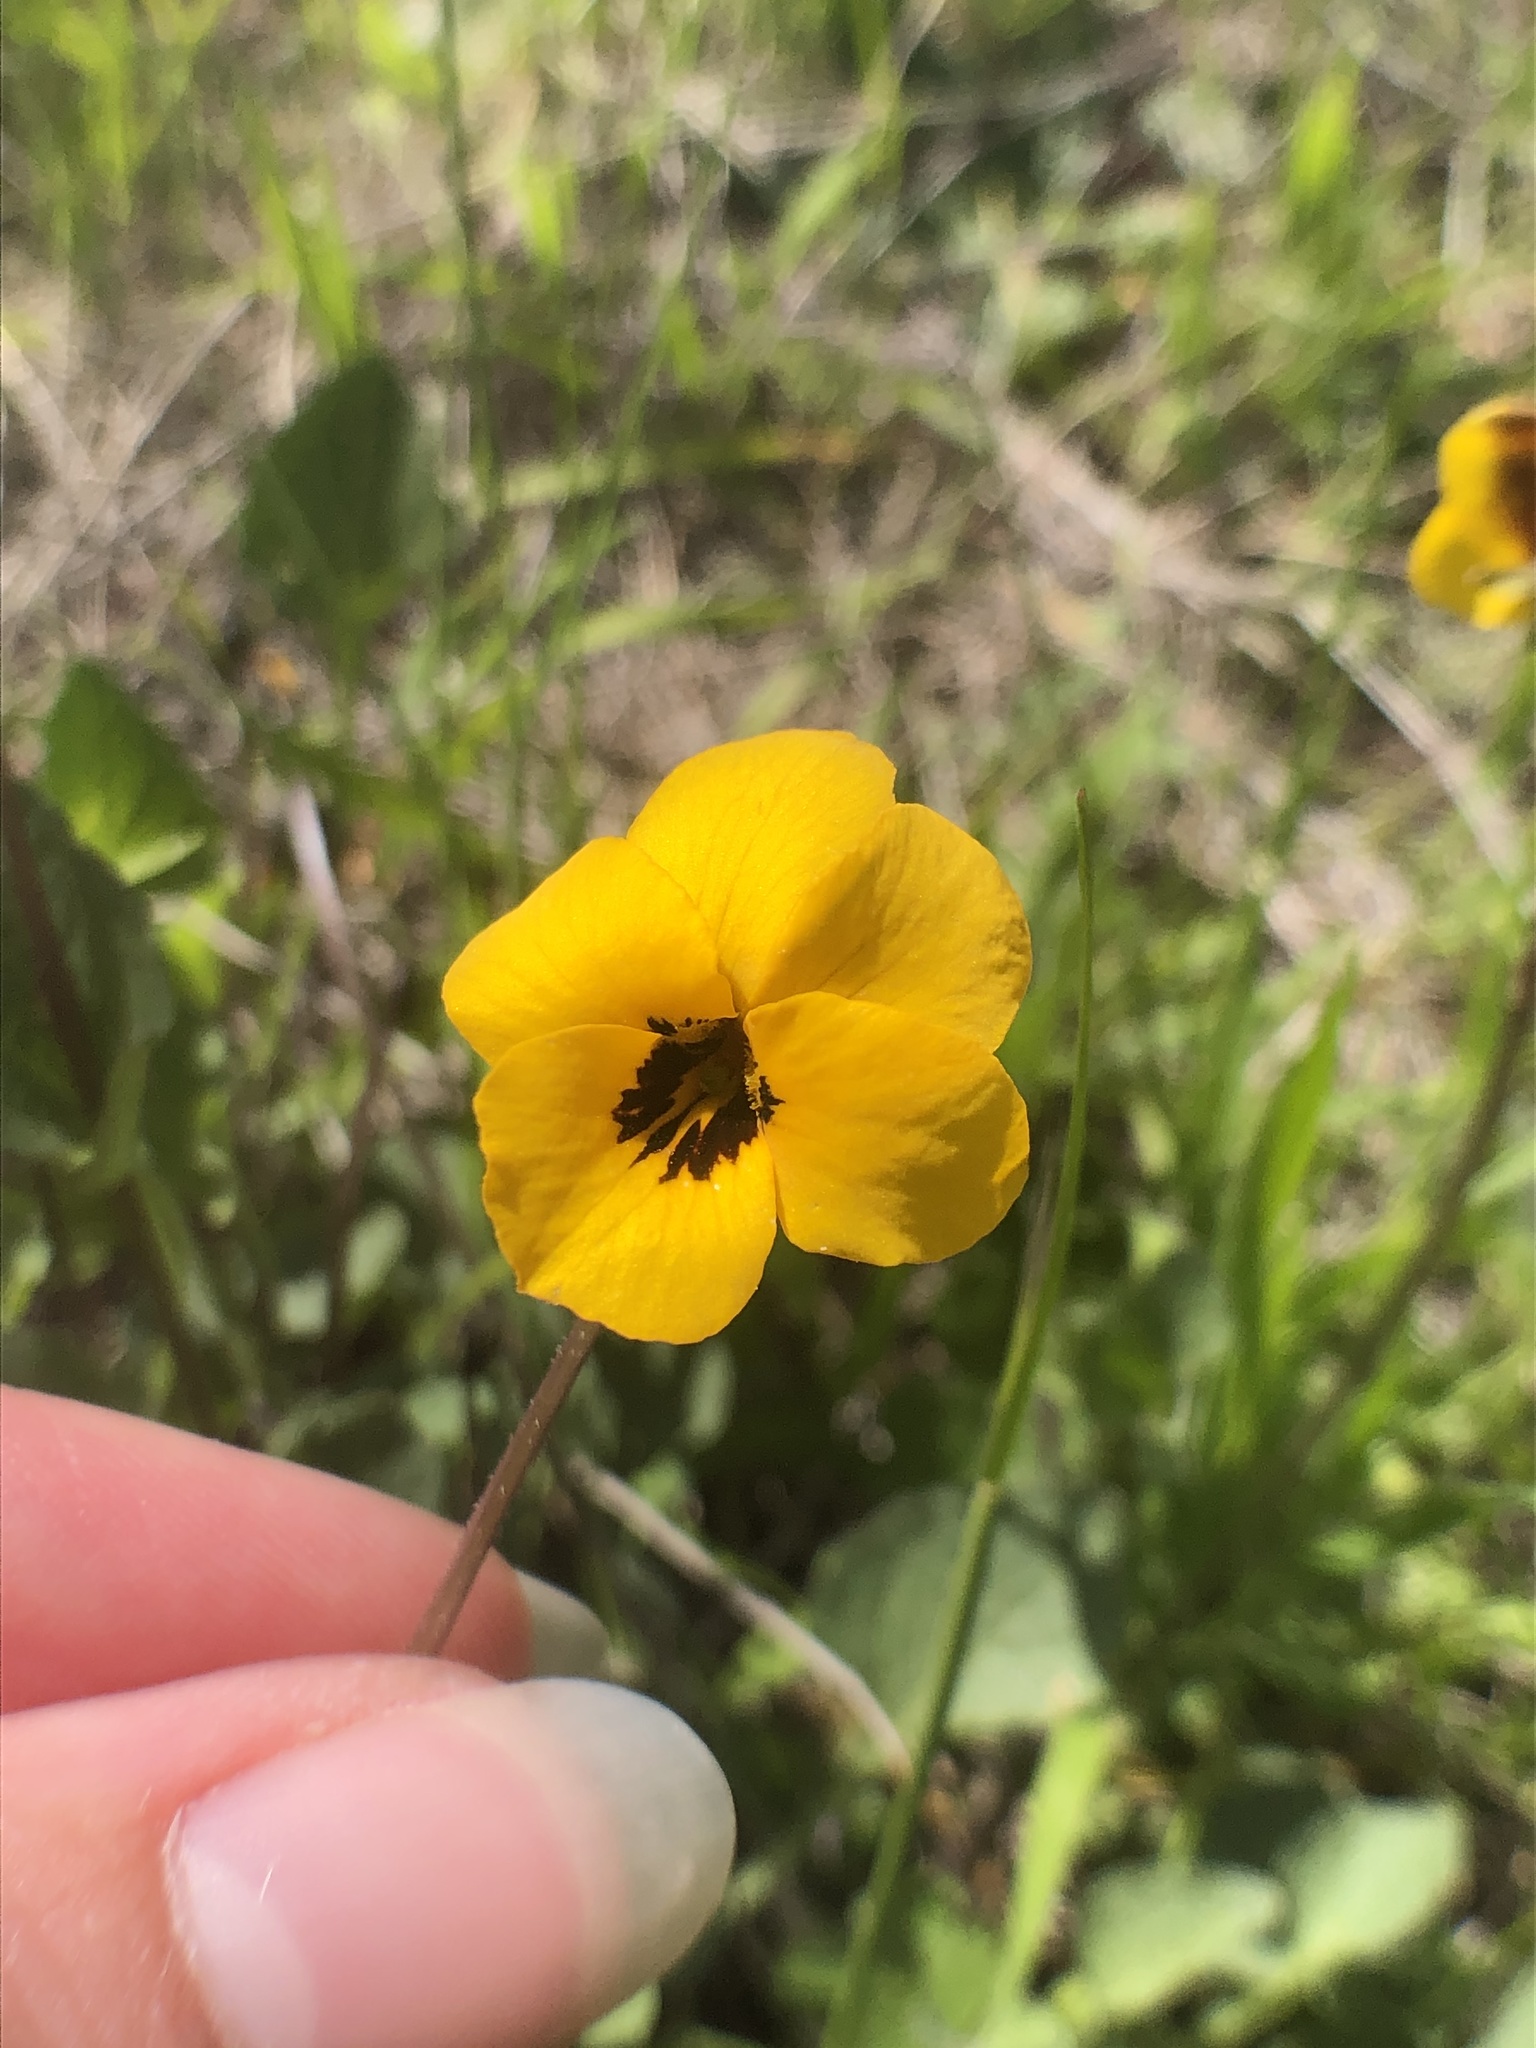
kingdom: Plantae
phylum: Tracheophyta
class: Magnoliopsida
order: Malpighiales
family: Violaceae
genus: Viola
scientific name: Viola pedunculata
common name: California golden violet
